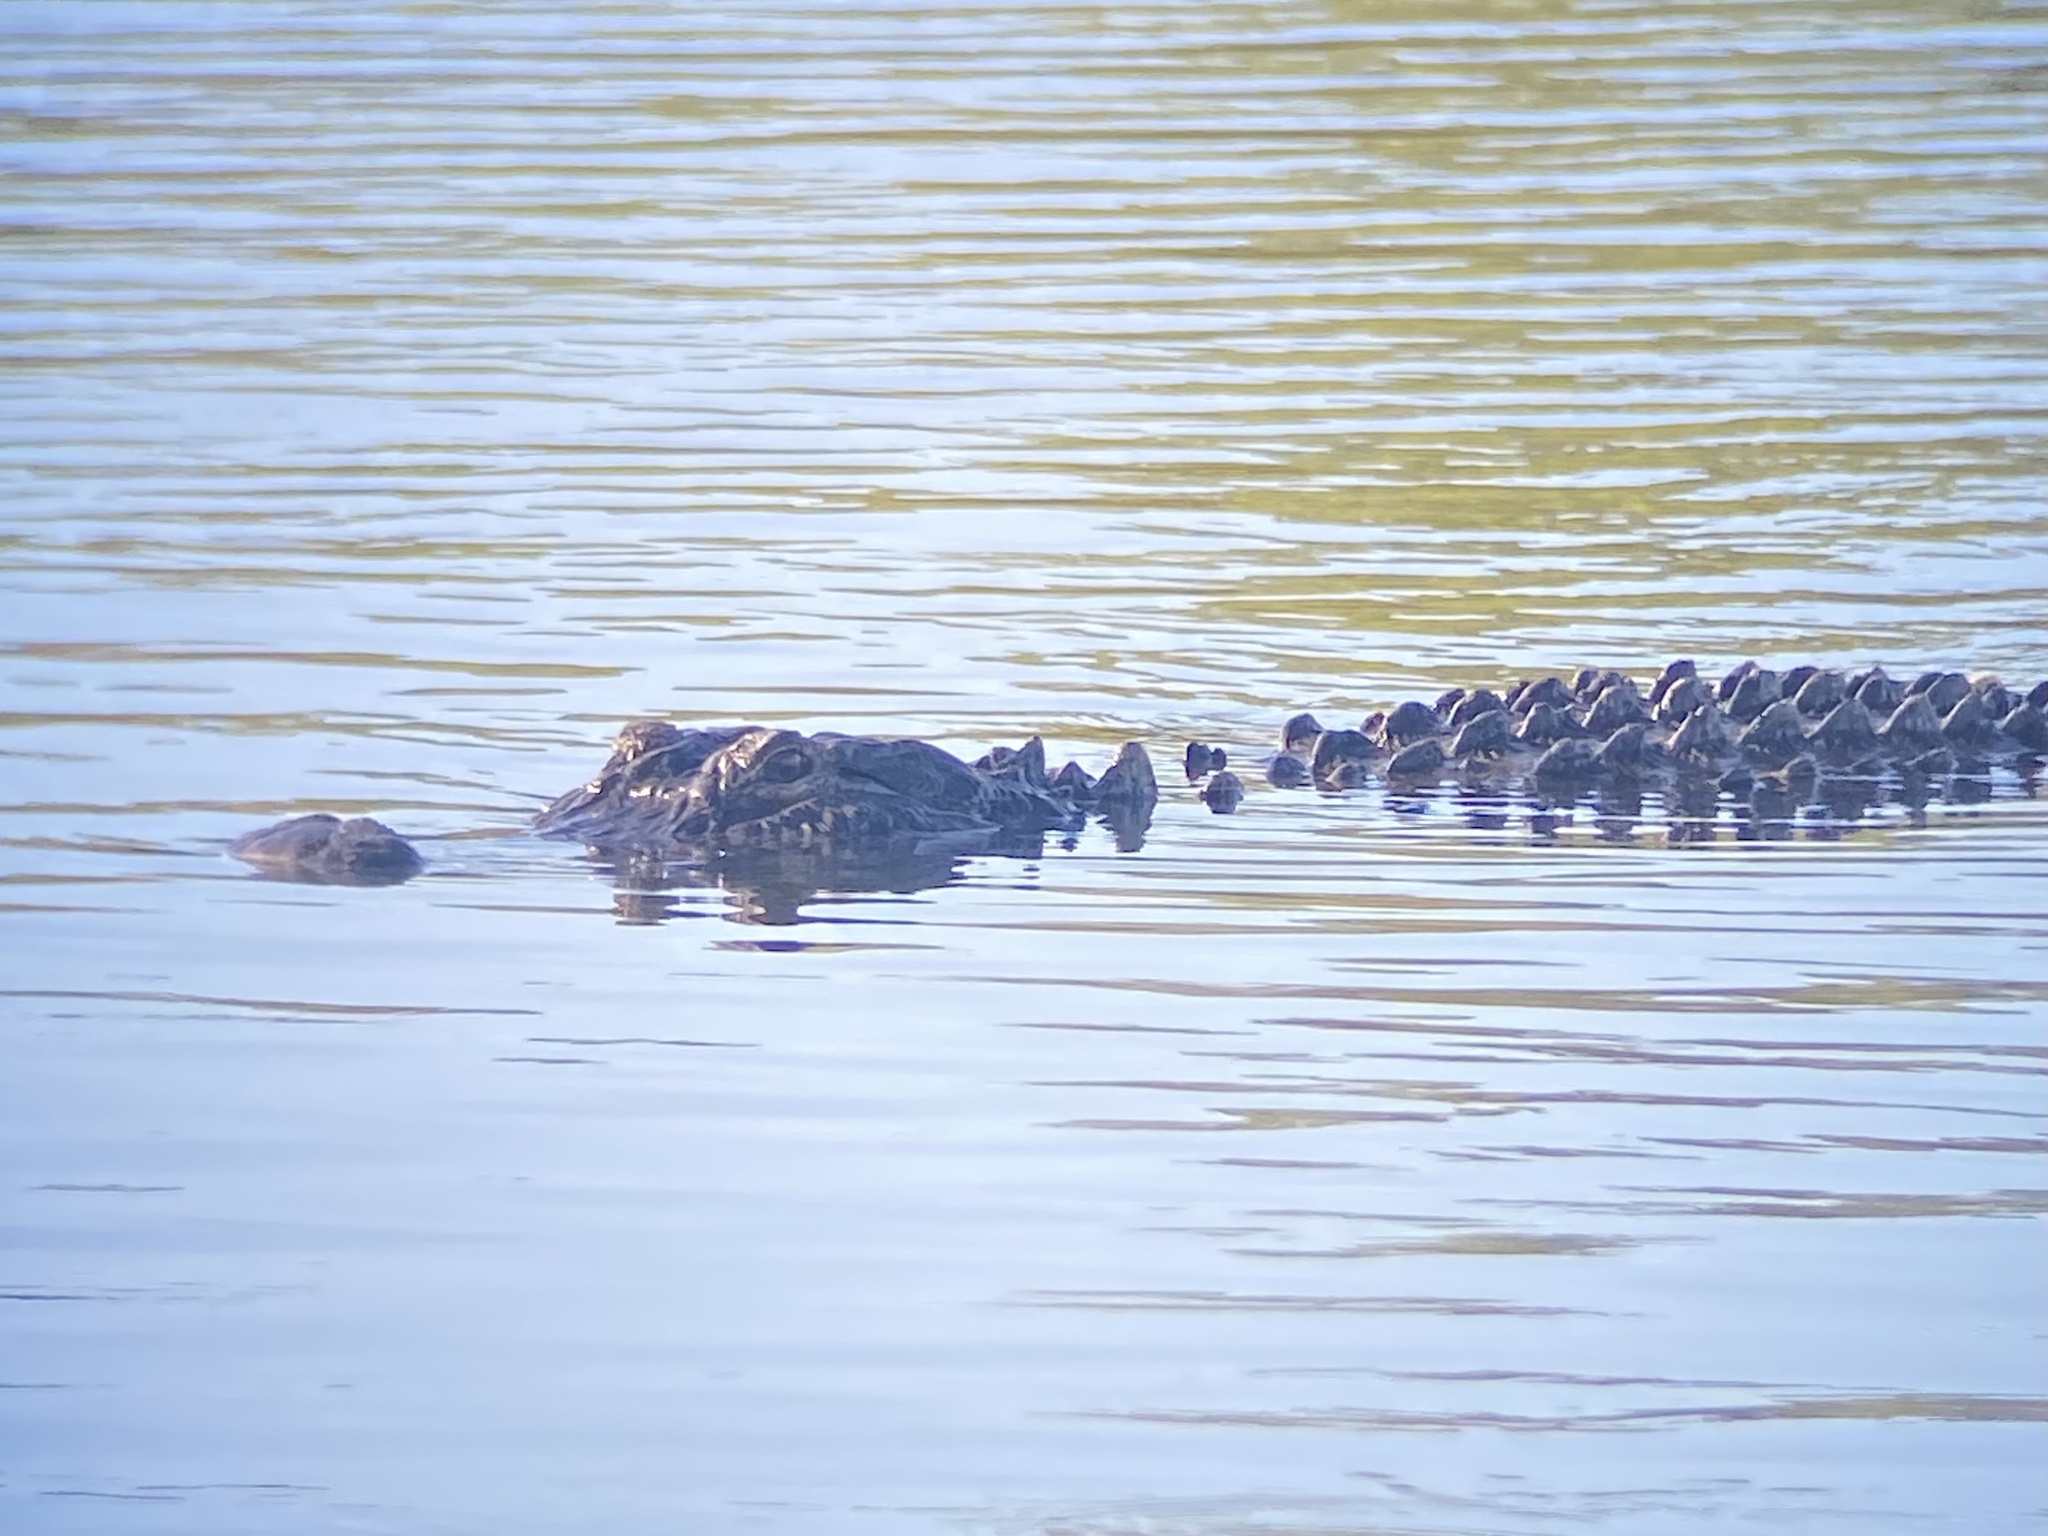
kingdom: Animalia
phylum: Chordata
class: Crocodylia
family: Alligatoridae
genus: Alligator
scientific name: Alligator mississippiensis
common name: American alligator
